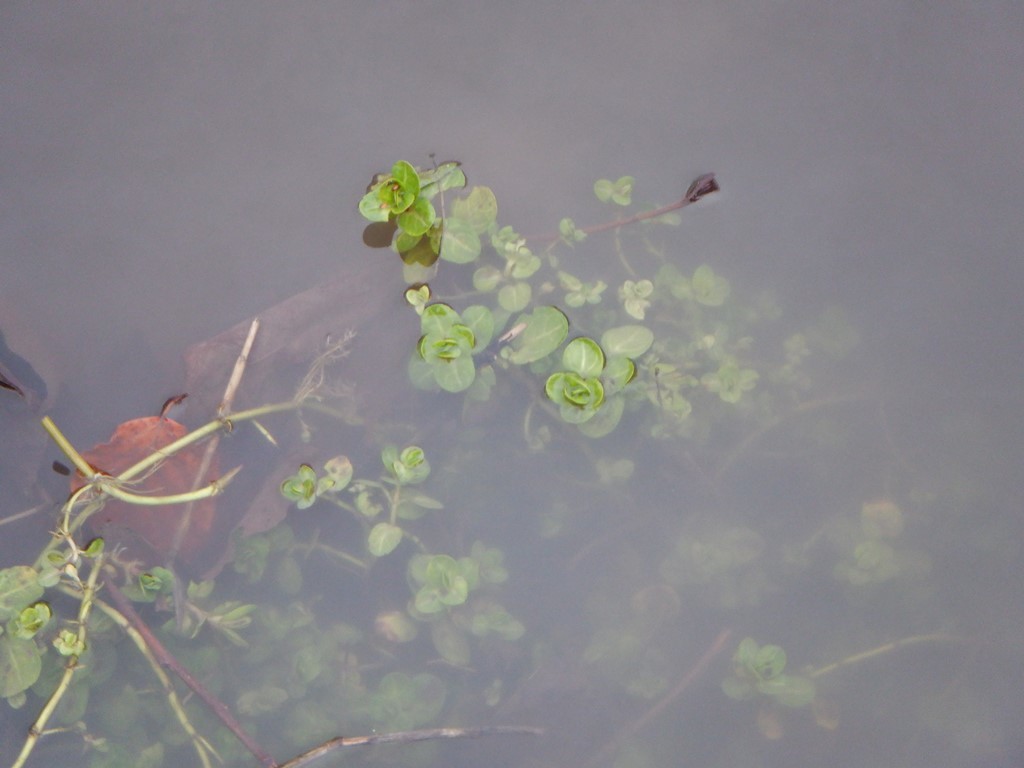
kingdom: Plantae
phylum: Tracheophyta
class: Magnoliopsida
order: Lamiales
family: Plantaginaceae
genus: Veronica
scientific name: Veronica beccabunga
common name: Brooklime
